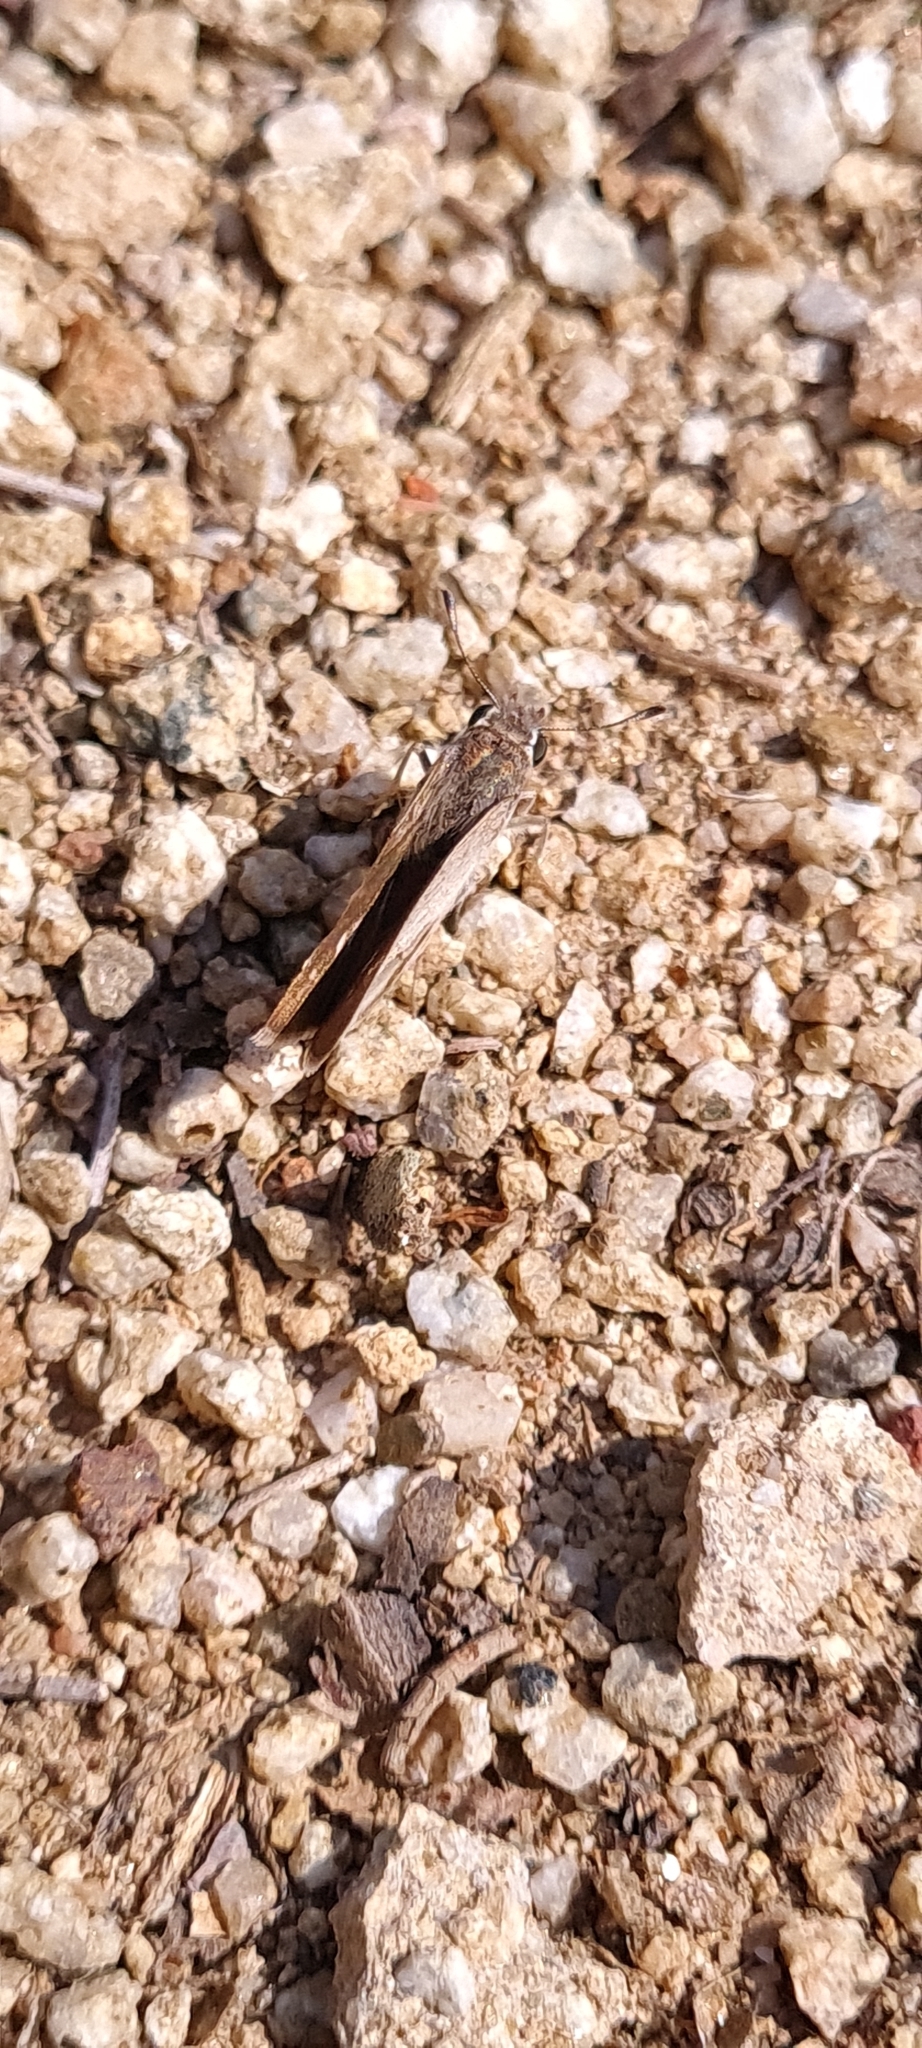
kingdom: Animalia
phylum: Arthropoda
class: Insecta
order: Lepidoptera
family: Hesperiidae
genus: Gegenes
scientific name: Gegenes nostrodamus
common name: Mediterranean skipper
